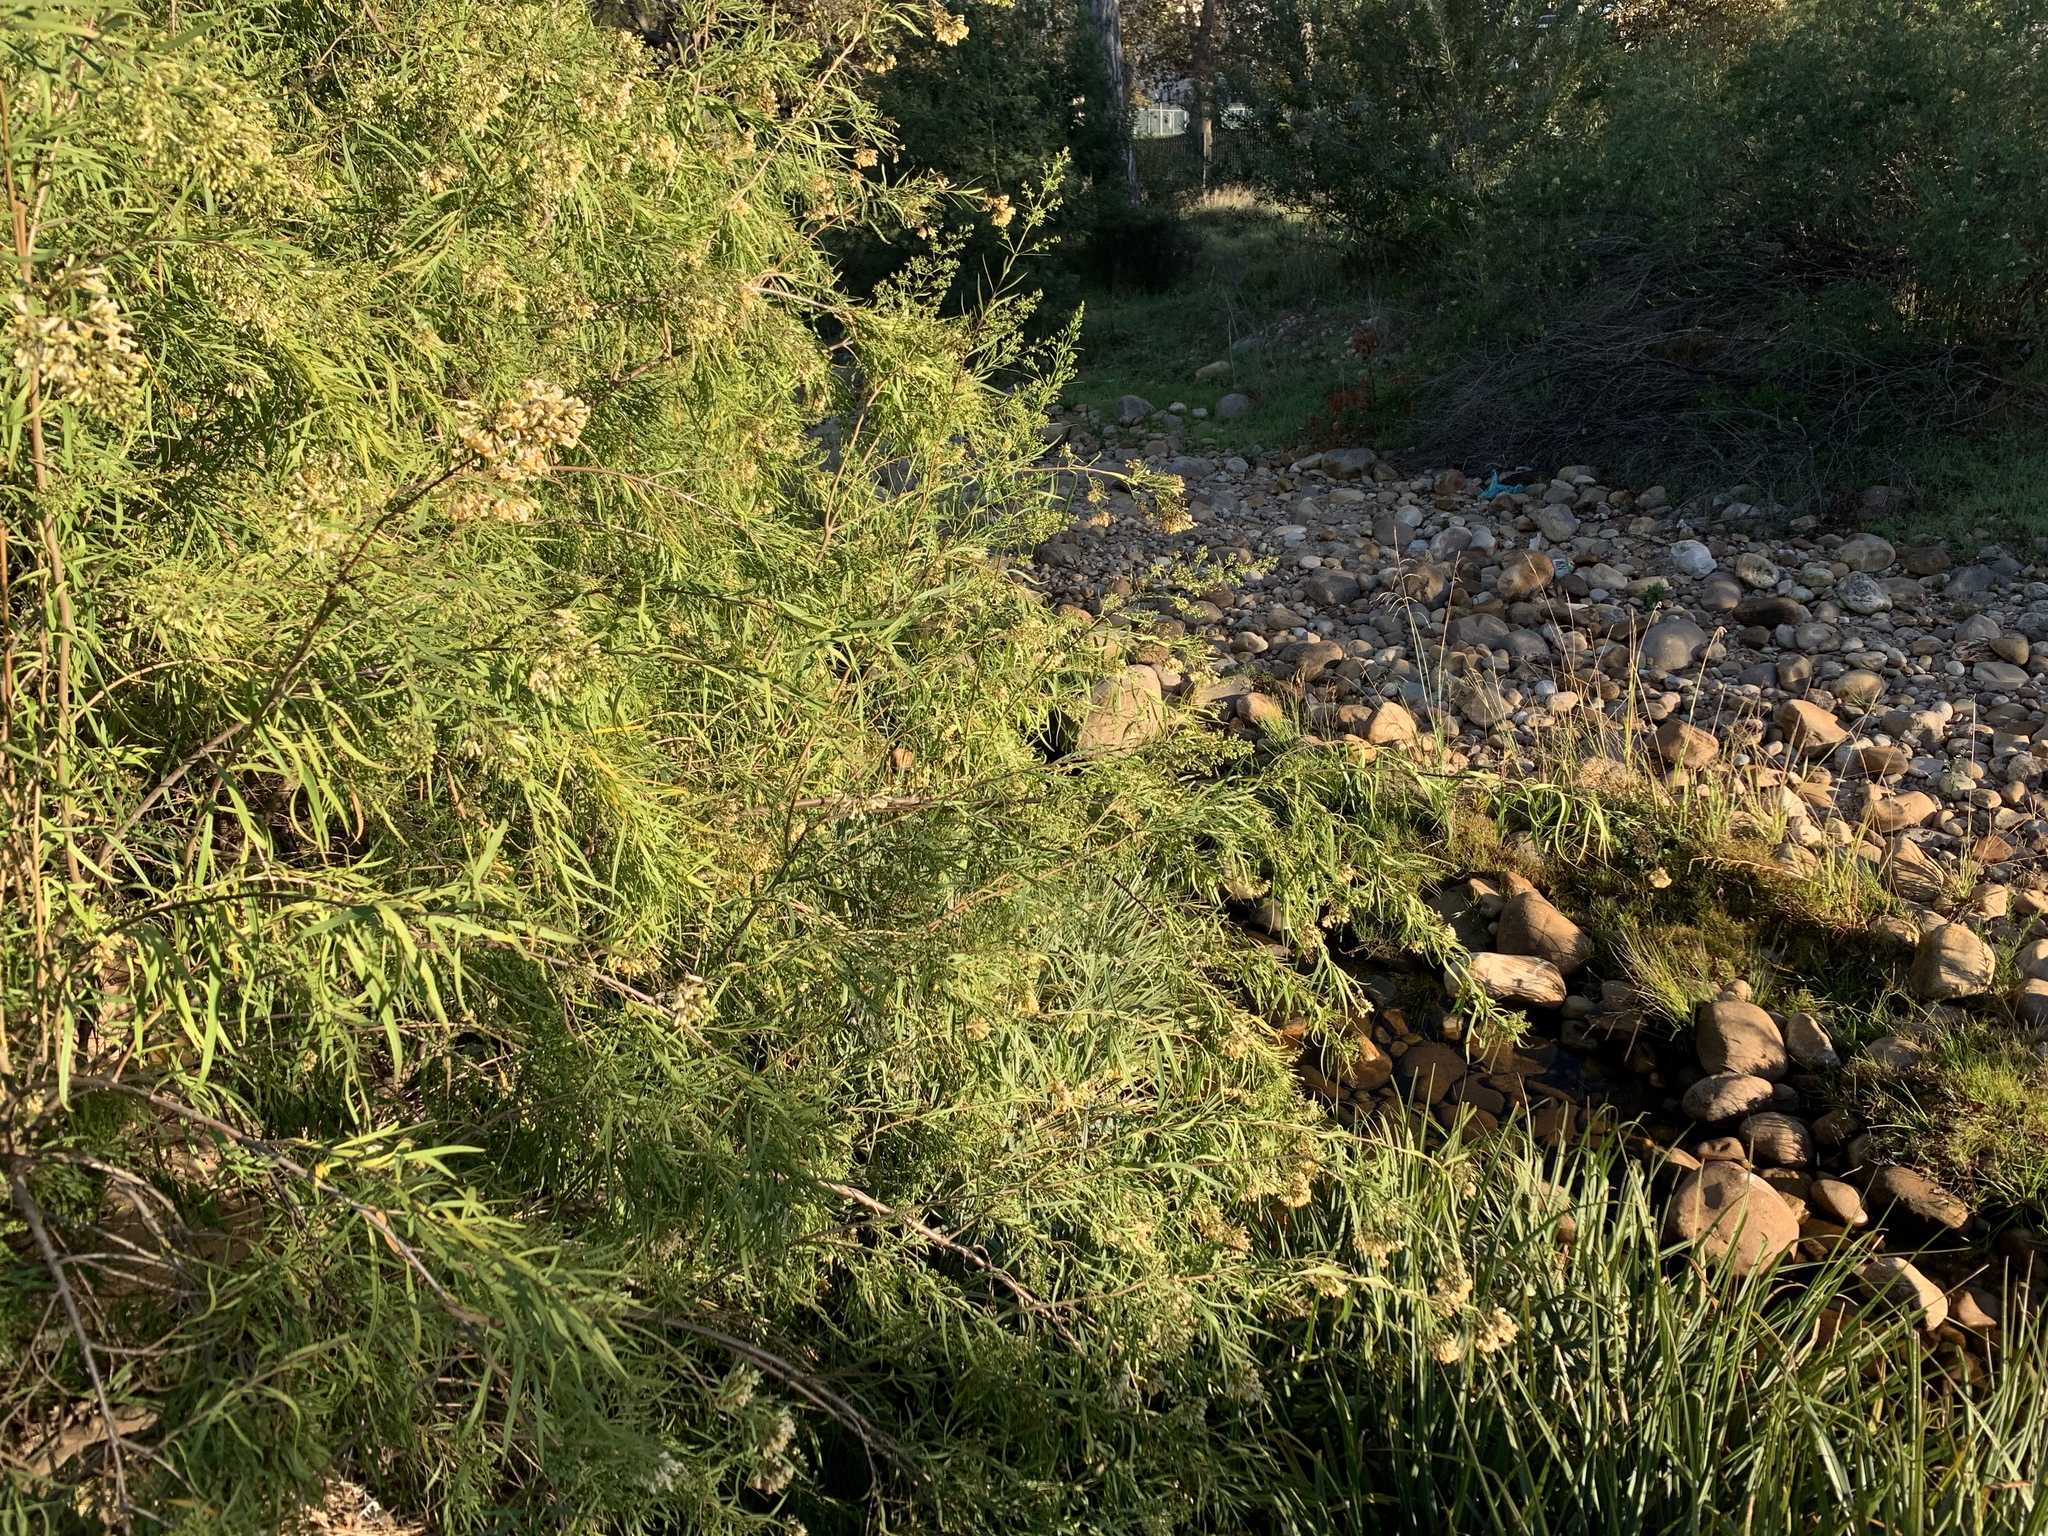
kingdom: Plantae
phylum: Tracheophyta
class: Magnoliopsida
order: Lamiales
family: Scrophulariaceae
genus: Freylinia
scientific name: Freylinia lanceolata
